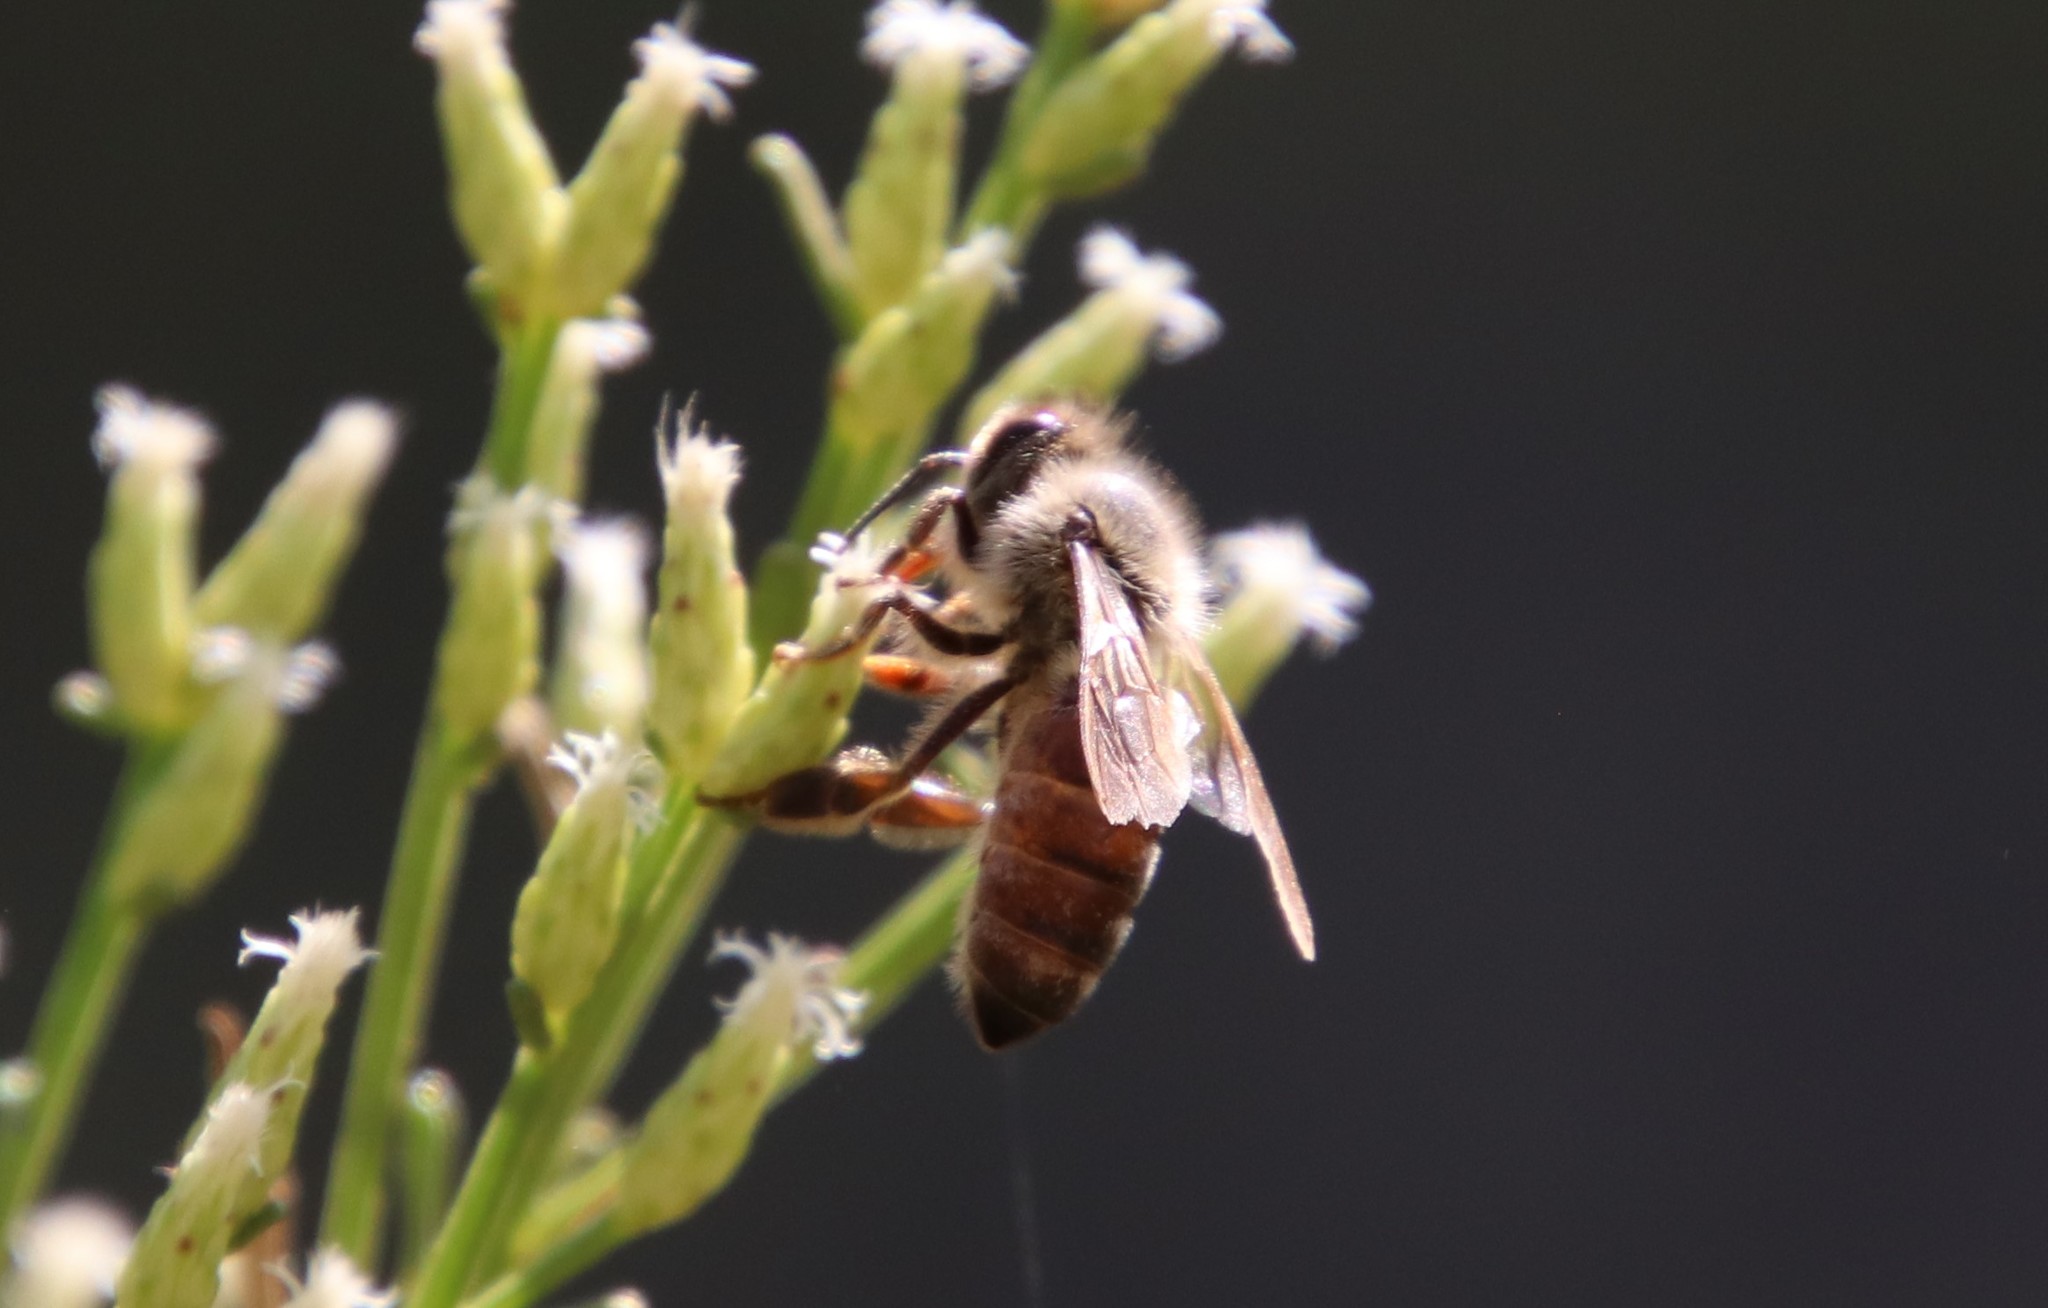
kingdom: Animalia
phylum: Arthropoda
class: Insecta
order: Hymenoptera
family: Apidae
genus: Apis
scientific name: Apis mellifera
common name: Honey bee
